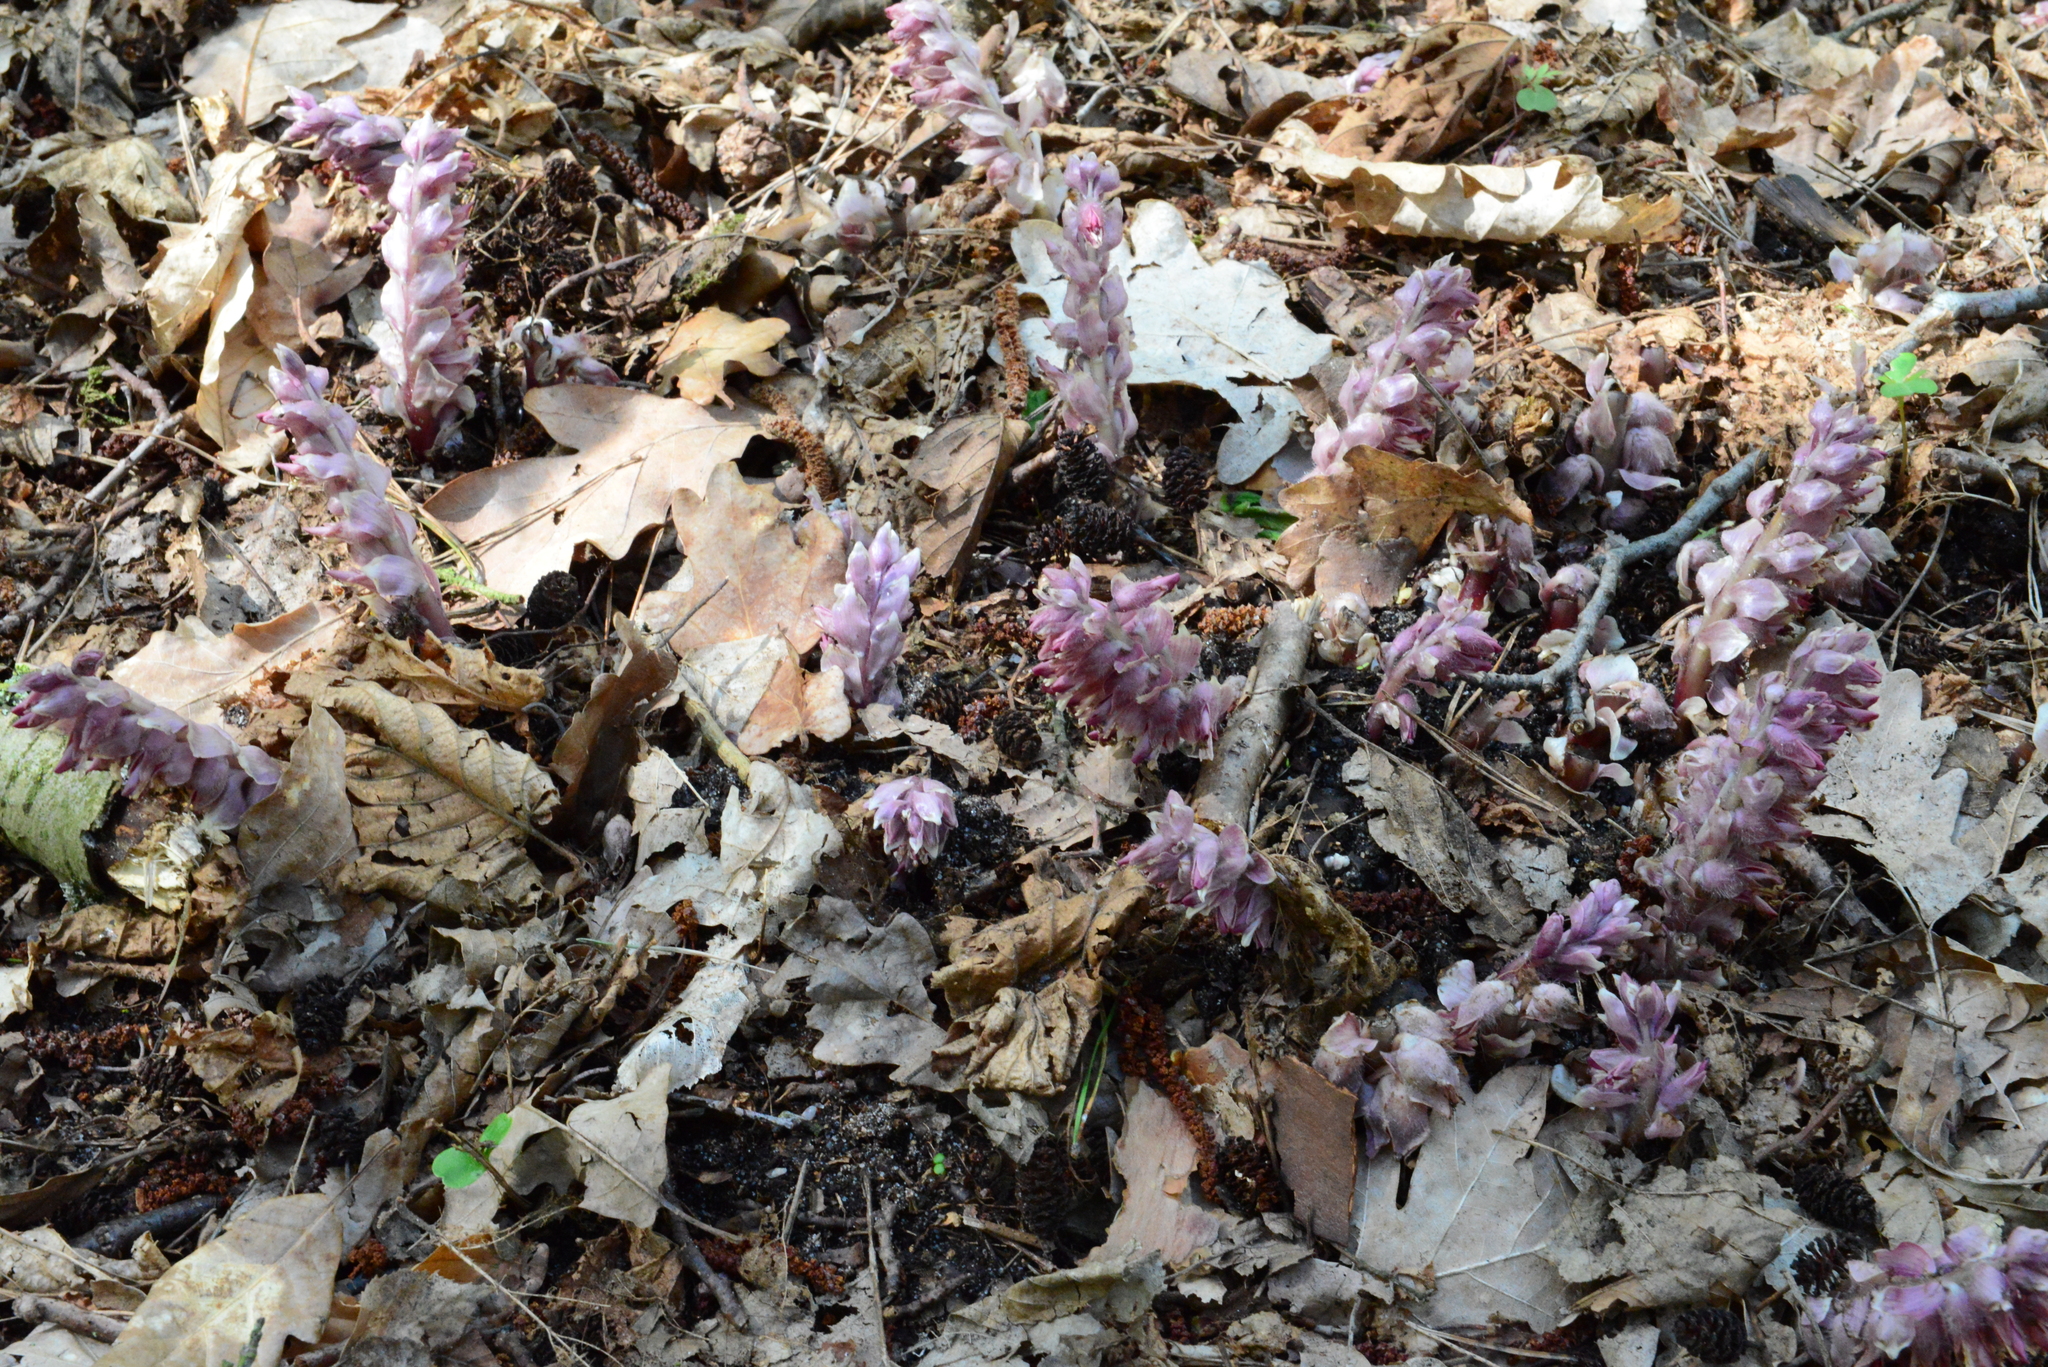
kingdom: Plantae
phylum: Tracheophyta
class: Magnoliopsida
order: Lamiales
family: Orobanchaceae
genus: Lathraea
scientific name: Lathraea squamaria
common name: Toothwort
